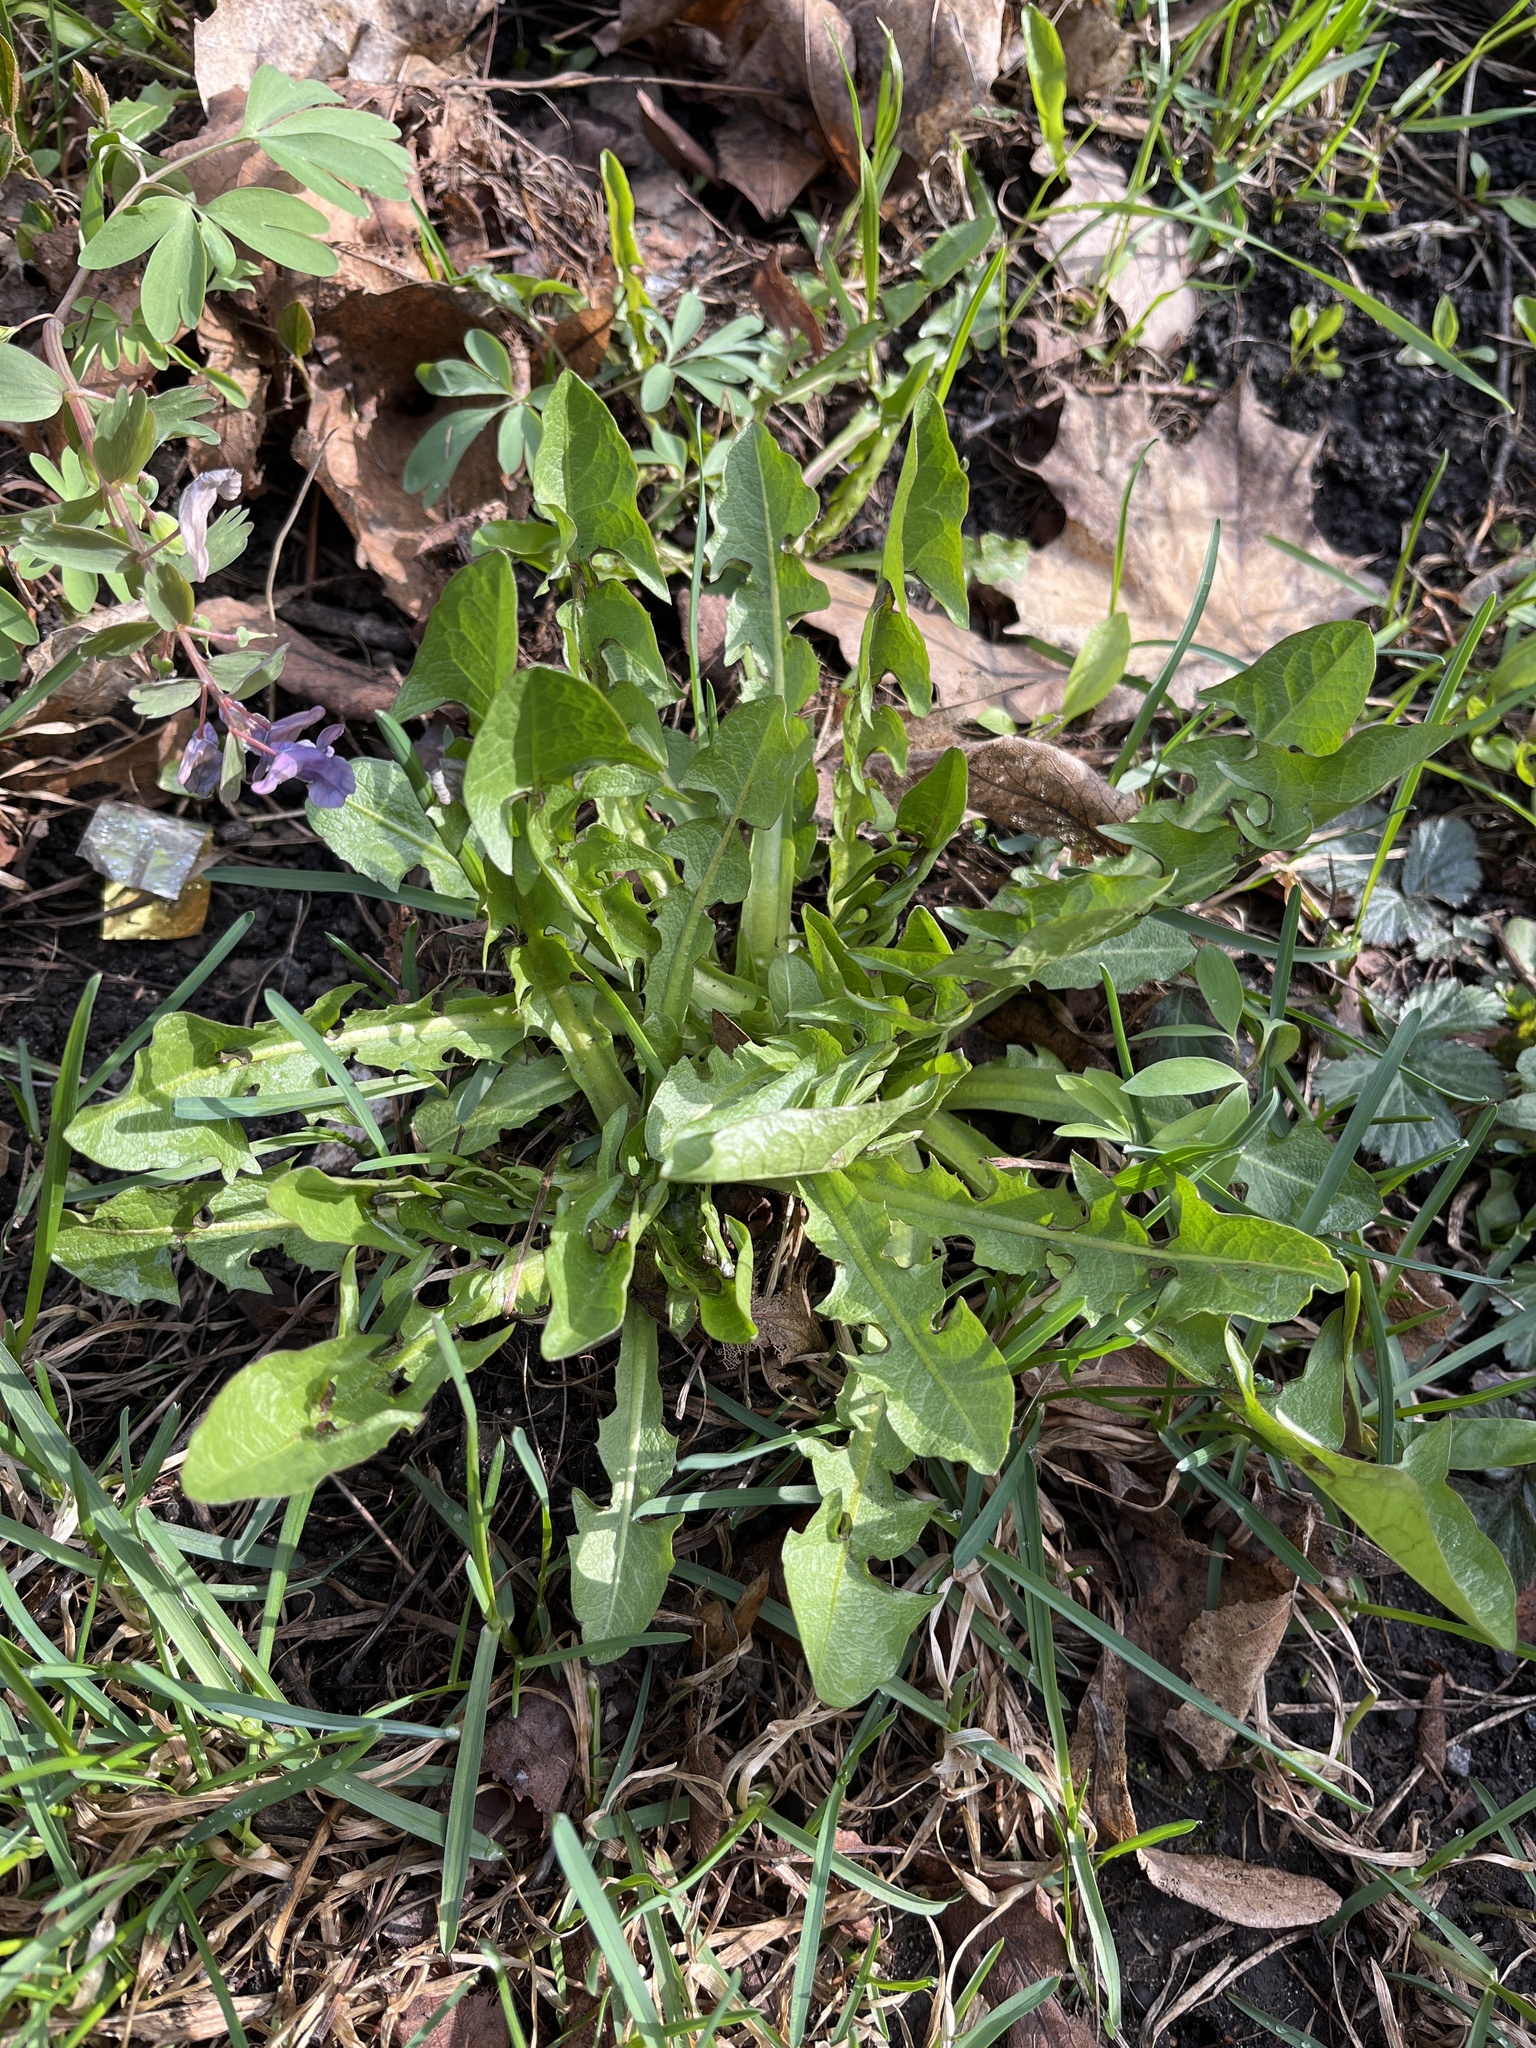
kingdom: Plantae
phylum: Tracheophyta
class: Magnoliopsida
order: Asterales
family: Asteraceae
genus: Taraxacum
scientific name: Taraxacum officinale
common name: Common dandelion
